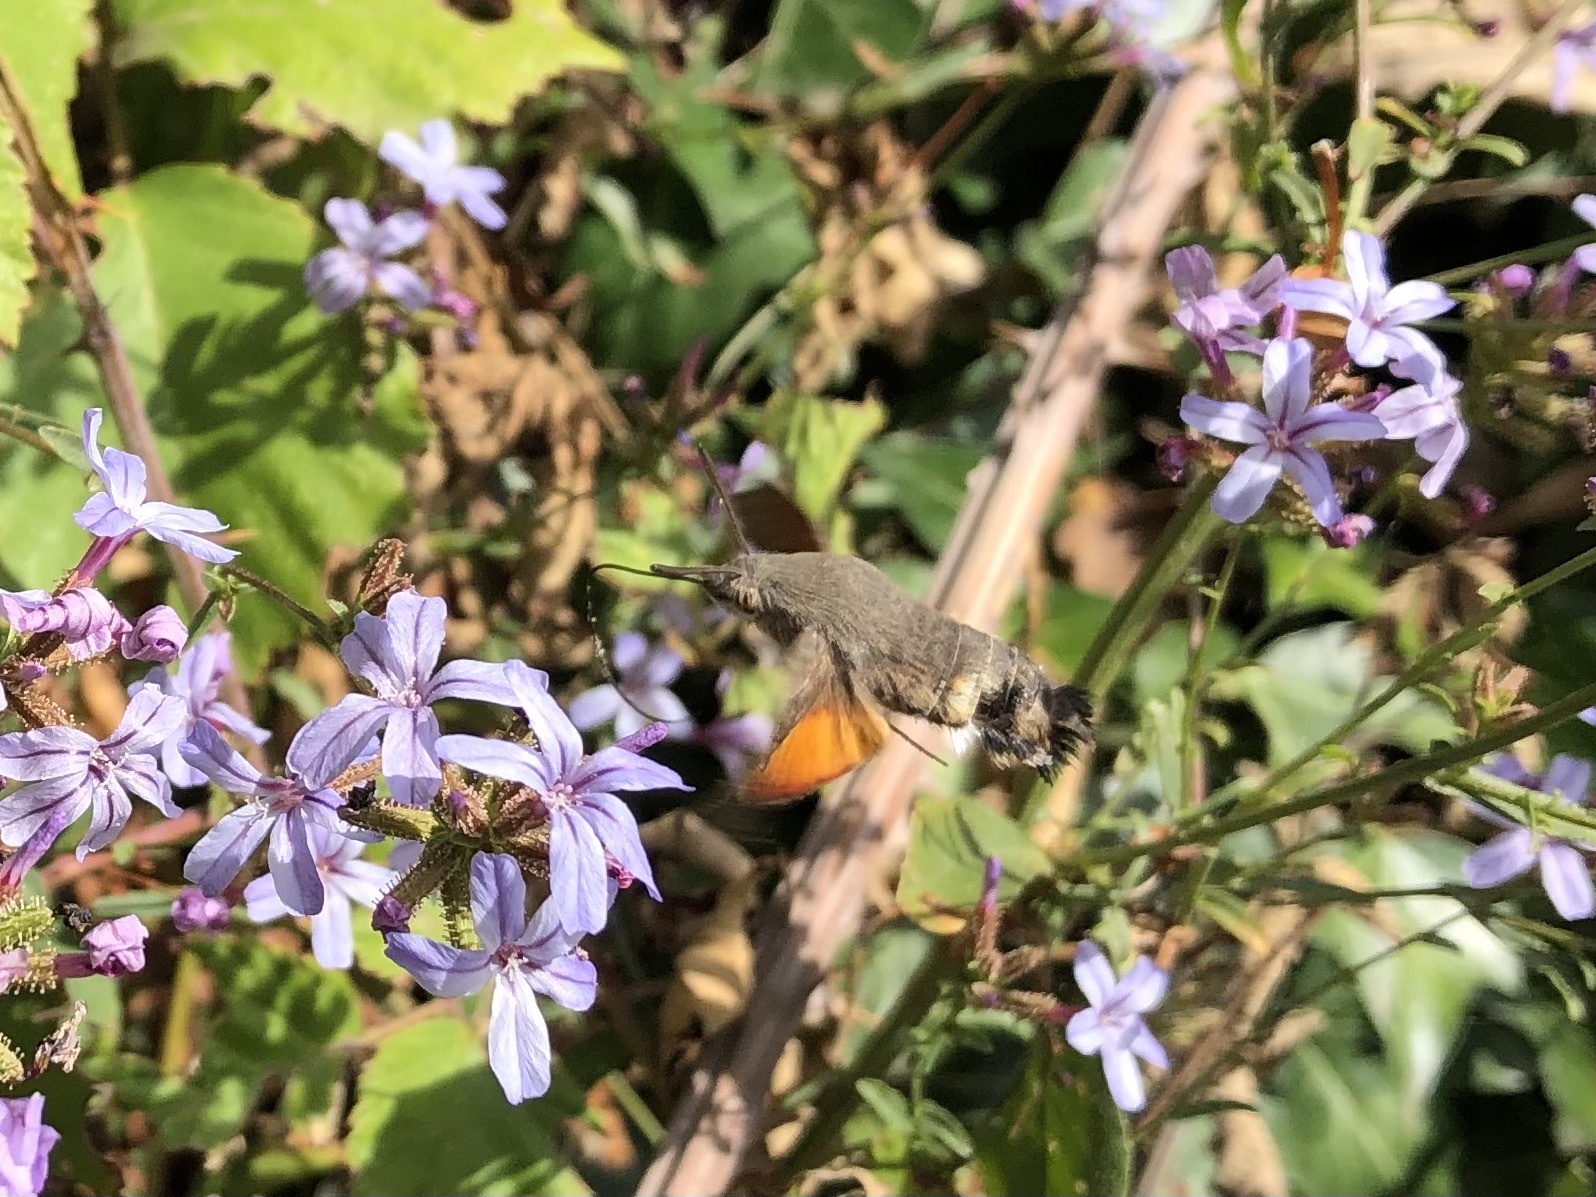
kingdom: Animalia
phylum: Arthropoda
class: Insecta
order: Lepidoptera
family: Sphingidae
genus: Macroglossum
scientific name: Macroglossum stellatarum
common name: Humming-bird hawk-moth
